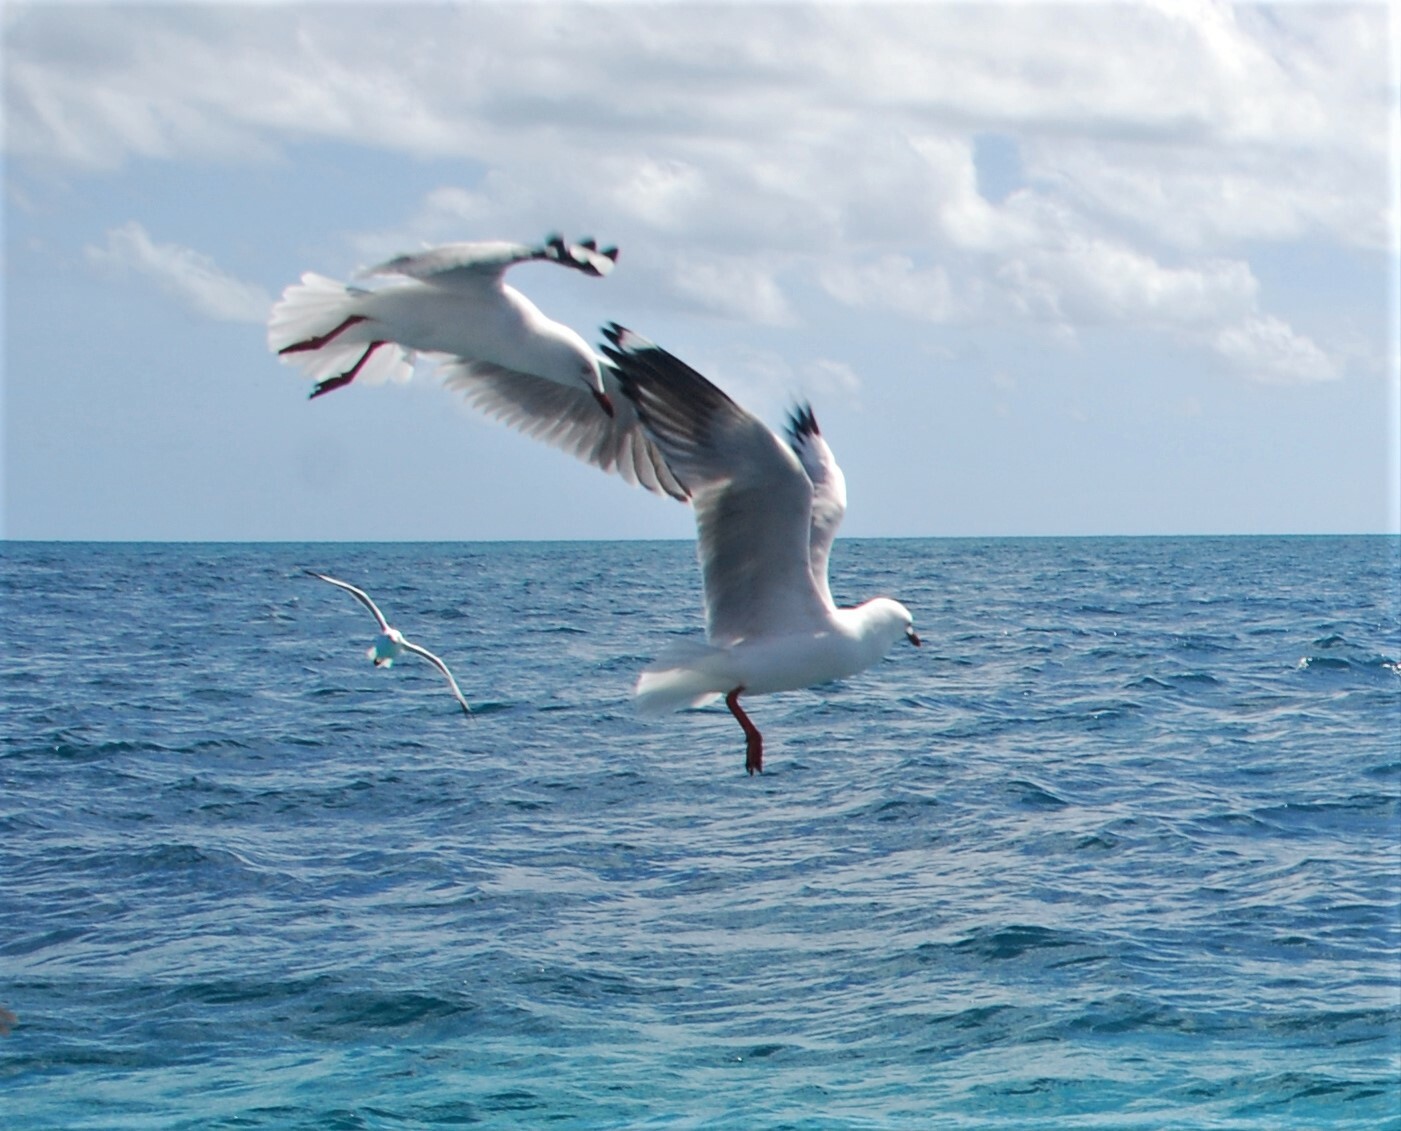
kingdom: Animalia
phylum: Chordata
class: Aves
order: Charadriiformes
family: Laridae
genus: Chroicocephalus
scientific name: Chroicocephalus novaehollandiae
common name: Silver gull
